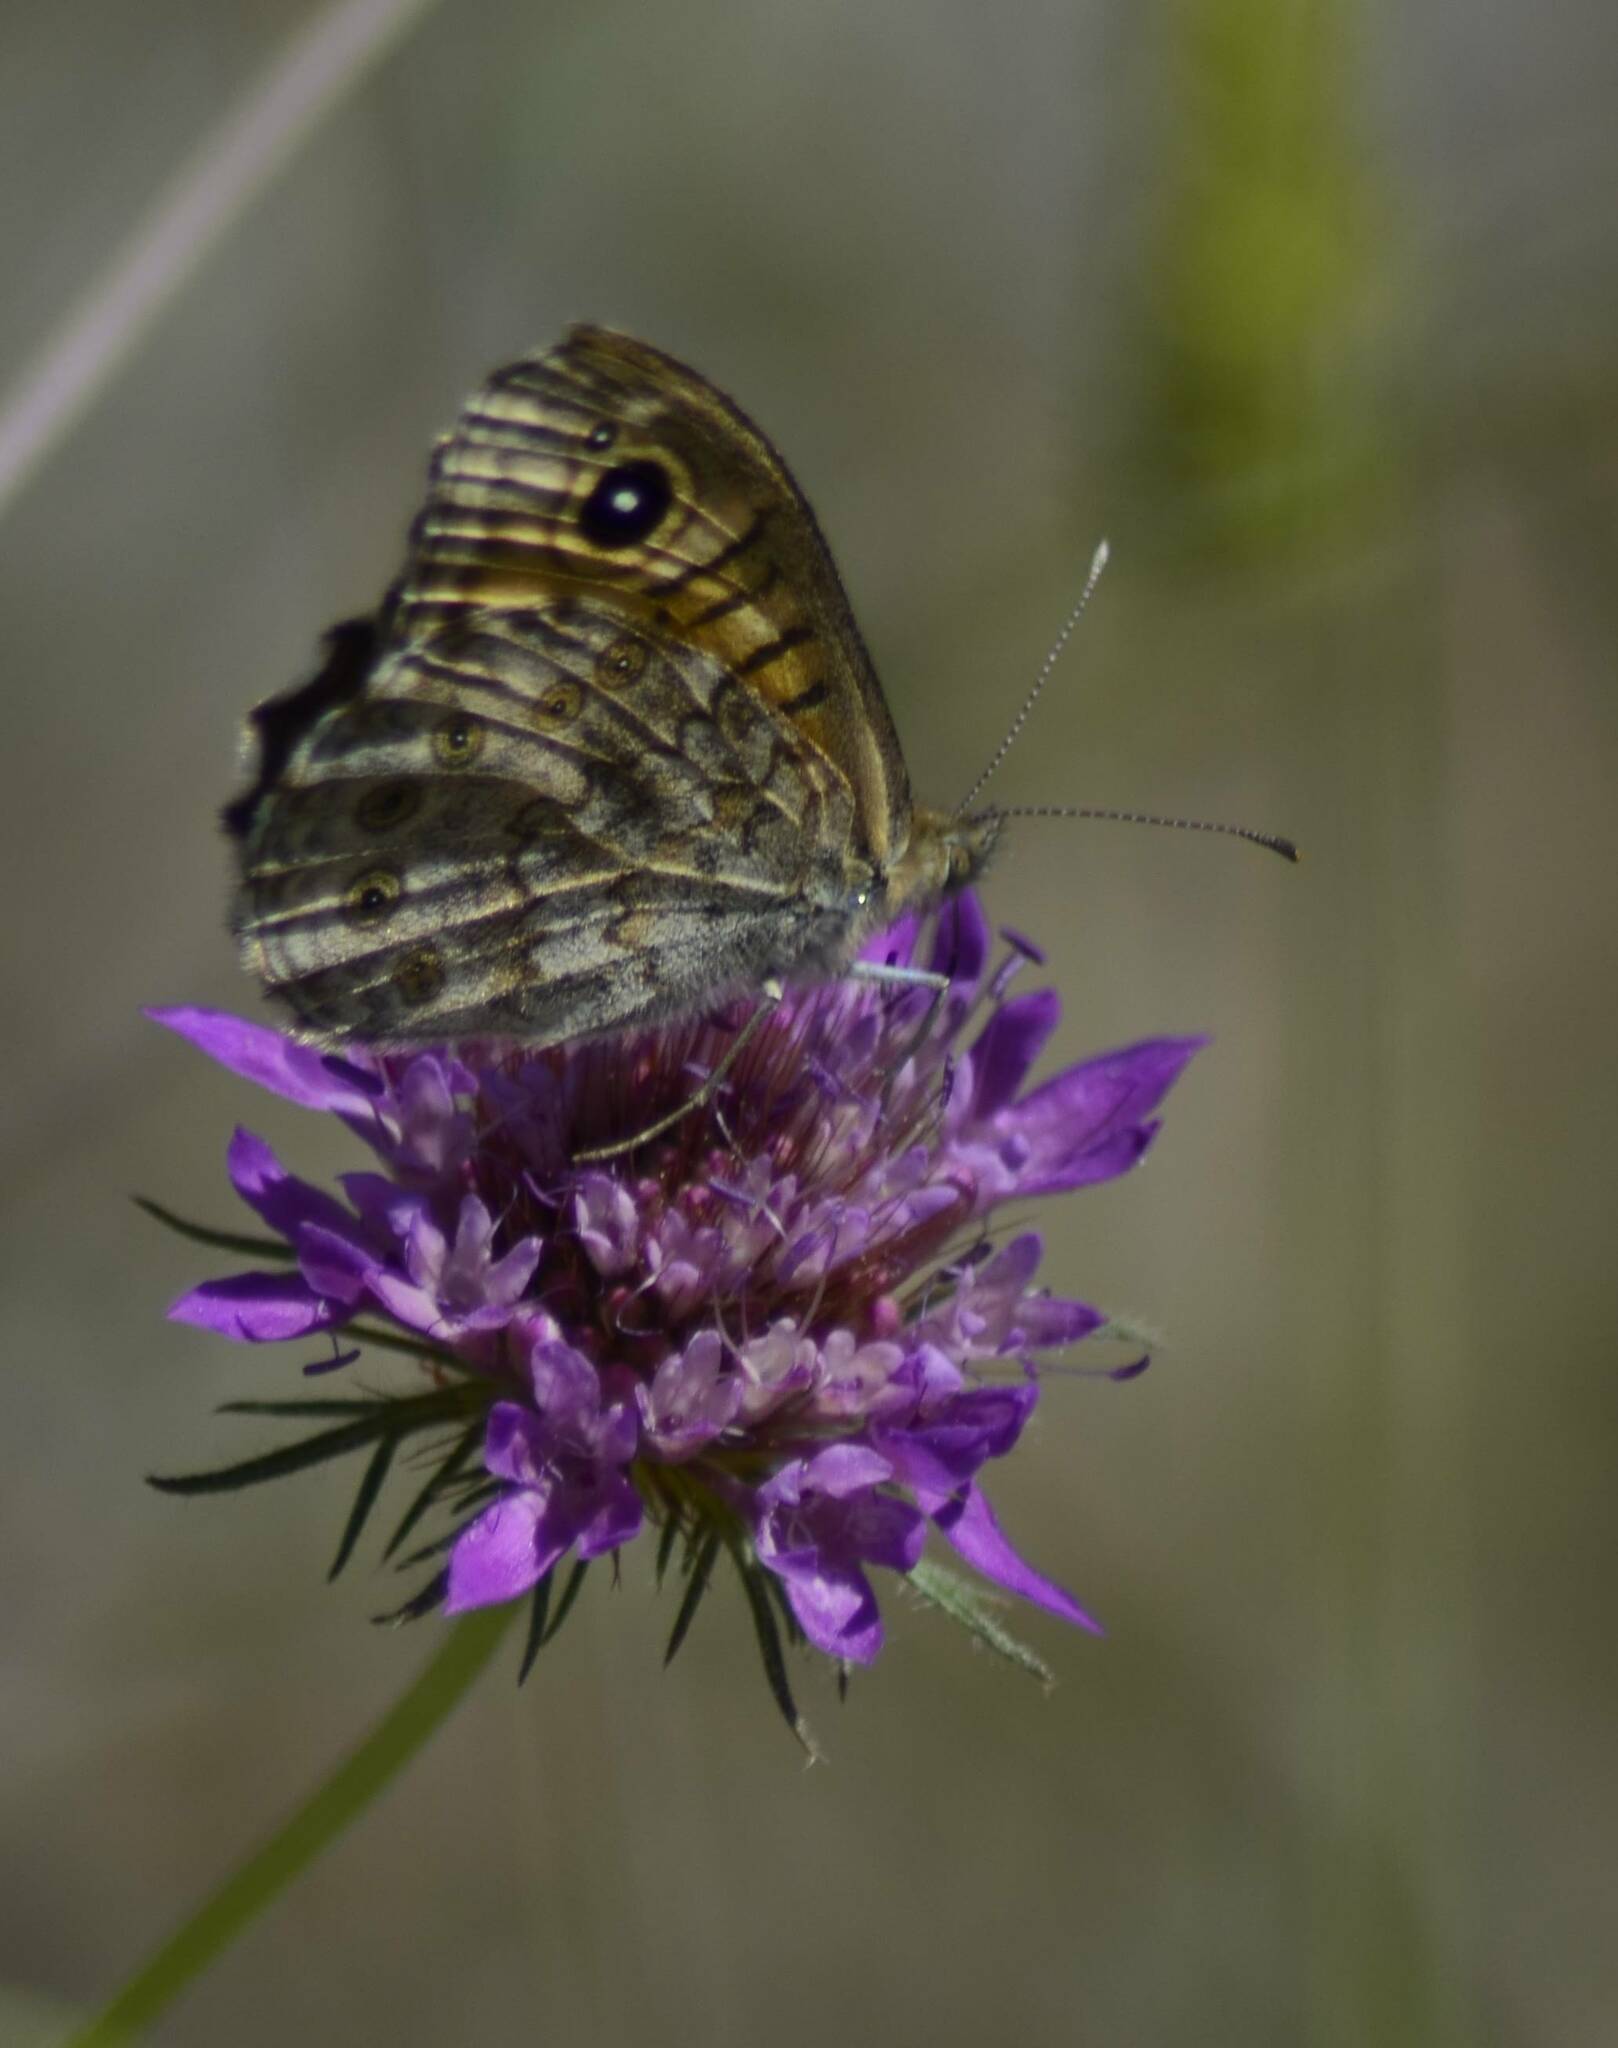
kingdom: Animalia
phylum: Arthropoda
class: Insecta
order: Lepidoptera
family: Nymphalidae
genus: Pararge
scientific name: Pararge Lasiommata megera
